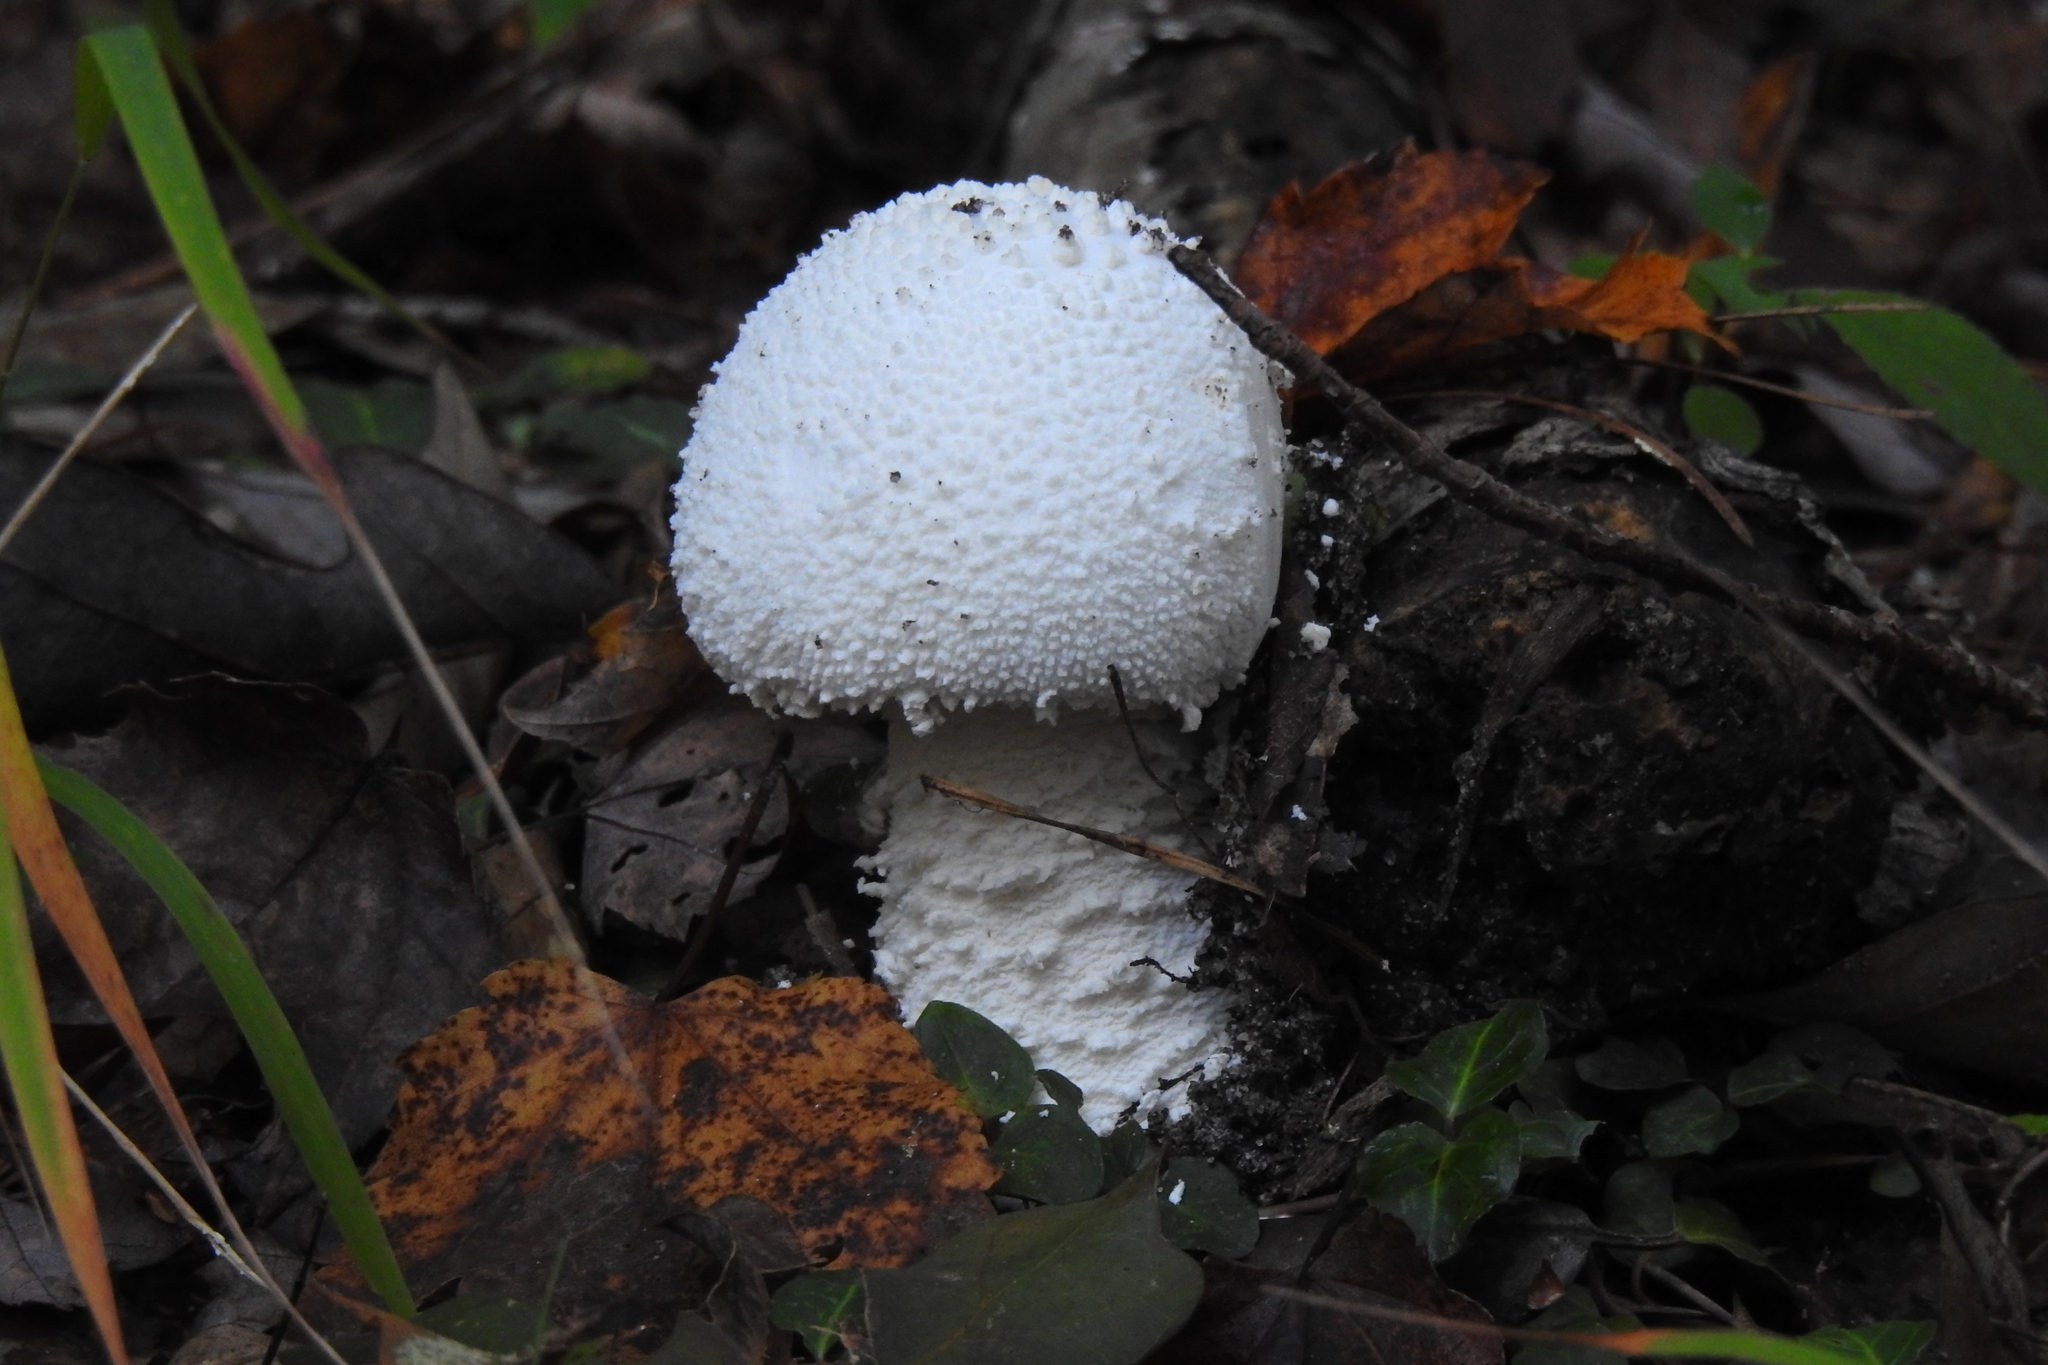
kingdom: Fungi
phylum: Basidiomycota
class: Agaricomycetes
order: Agaricales
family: Amanitaceae
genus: Amanita
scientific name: Amanita polypyramis
